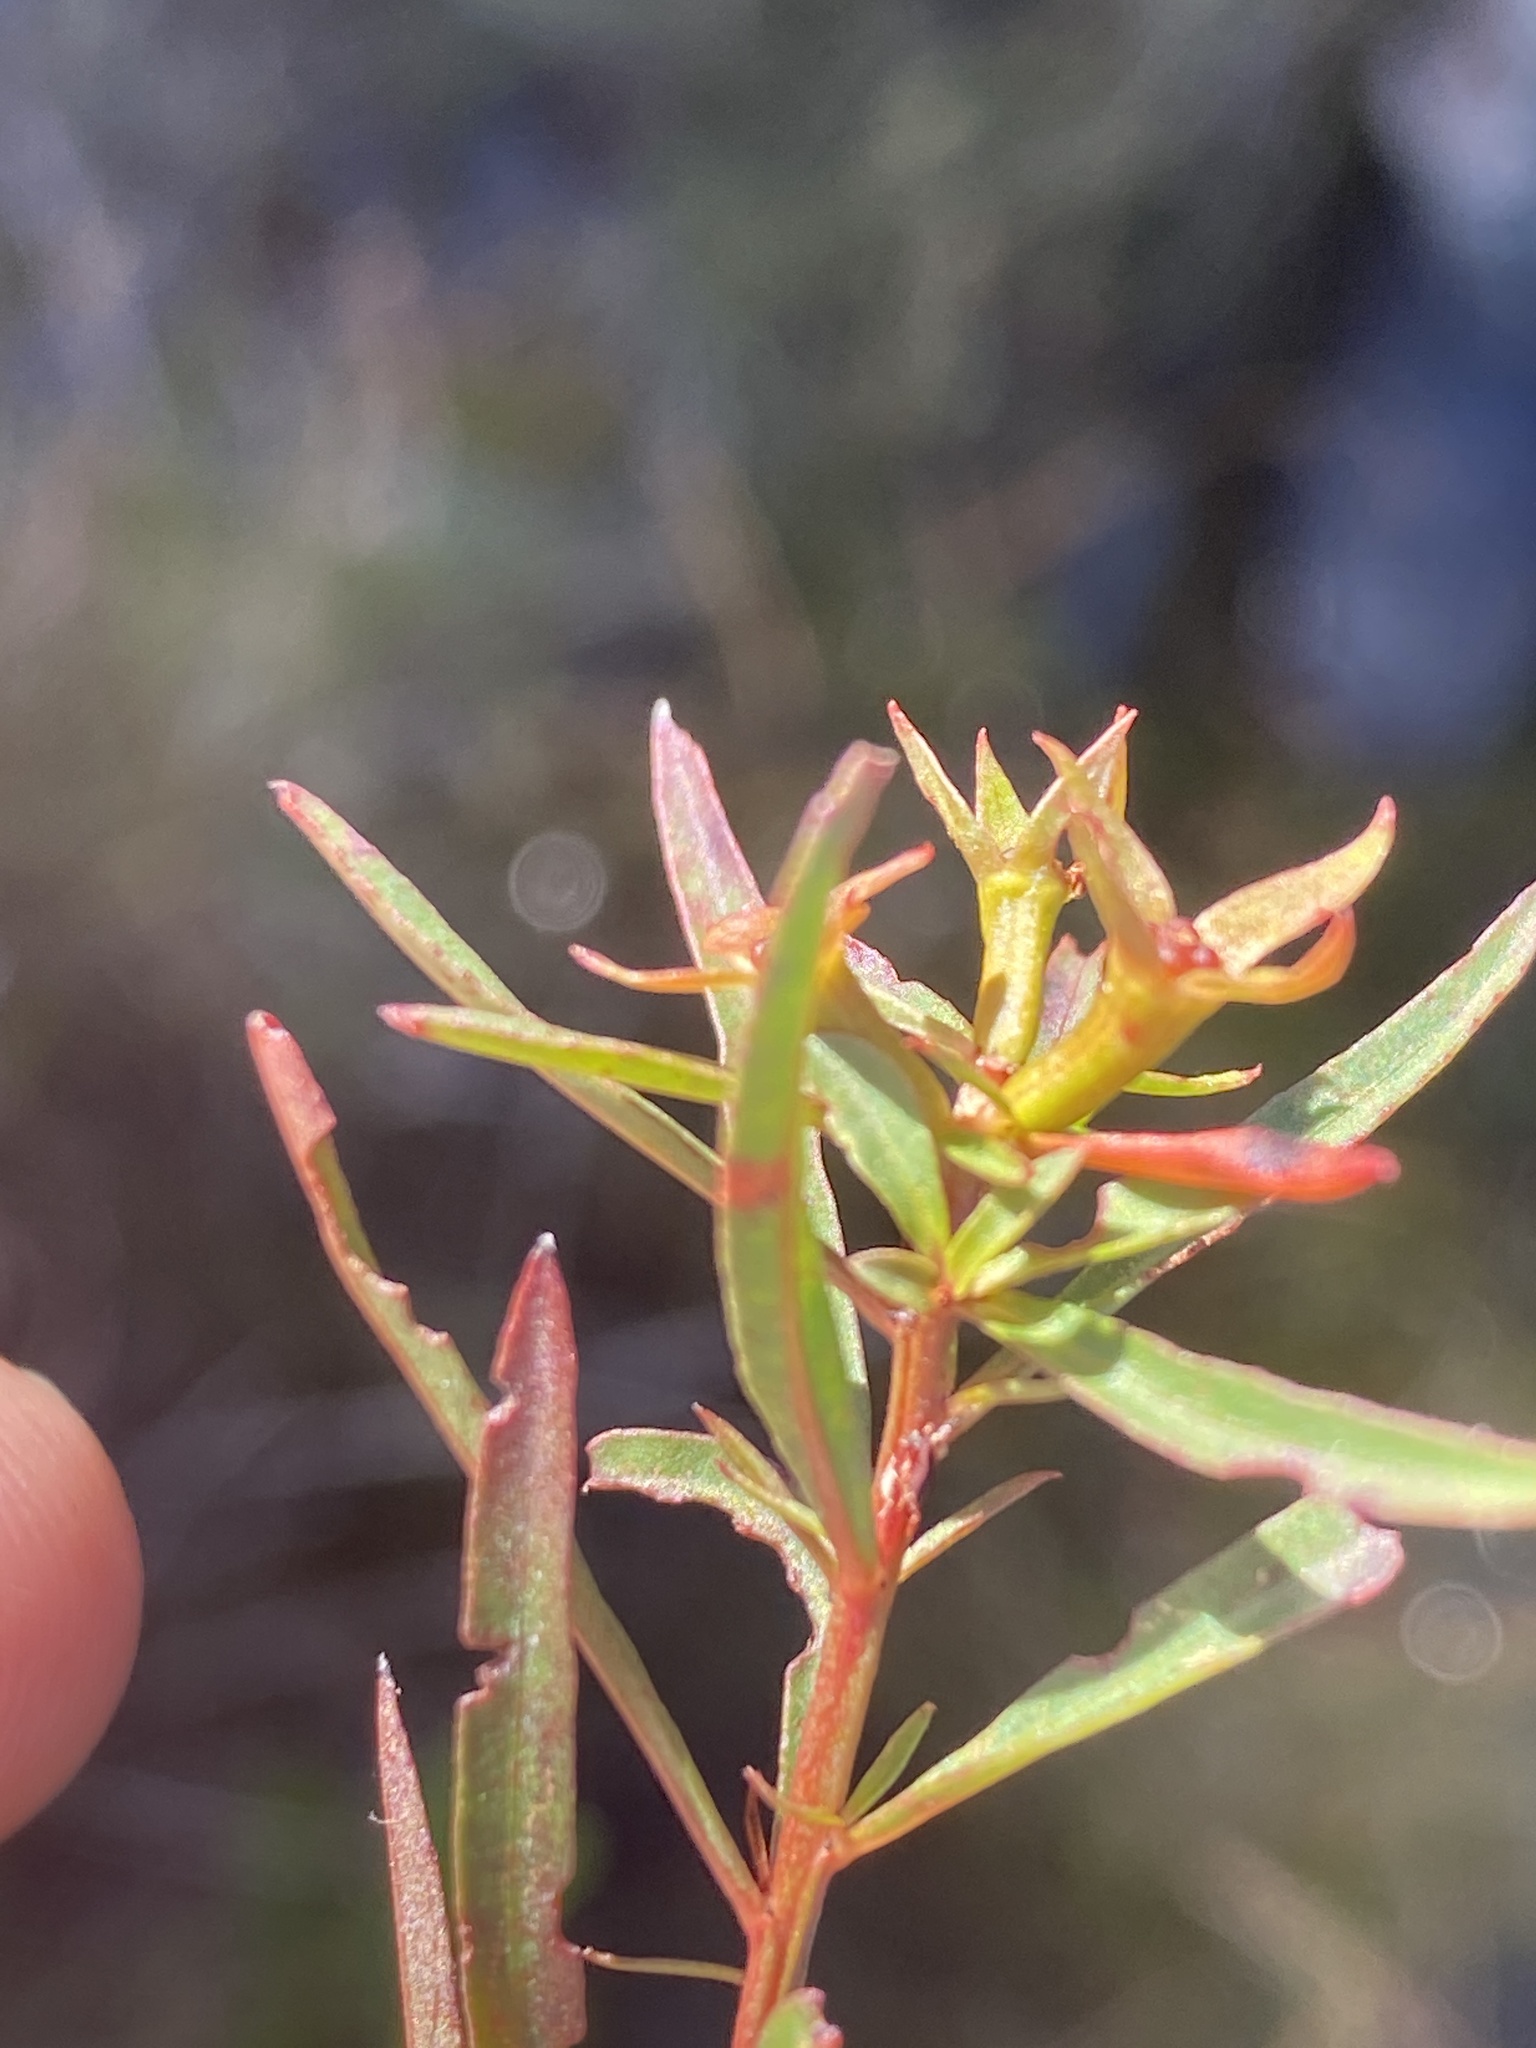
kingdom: Plantae
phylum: Tracheophyta
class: Magnoliopsida
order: Myrtales
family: Onagraceae
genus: Ludwigia
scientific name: Ludwigia linifolia
